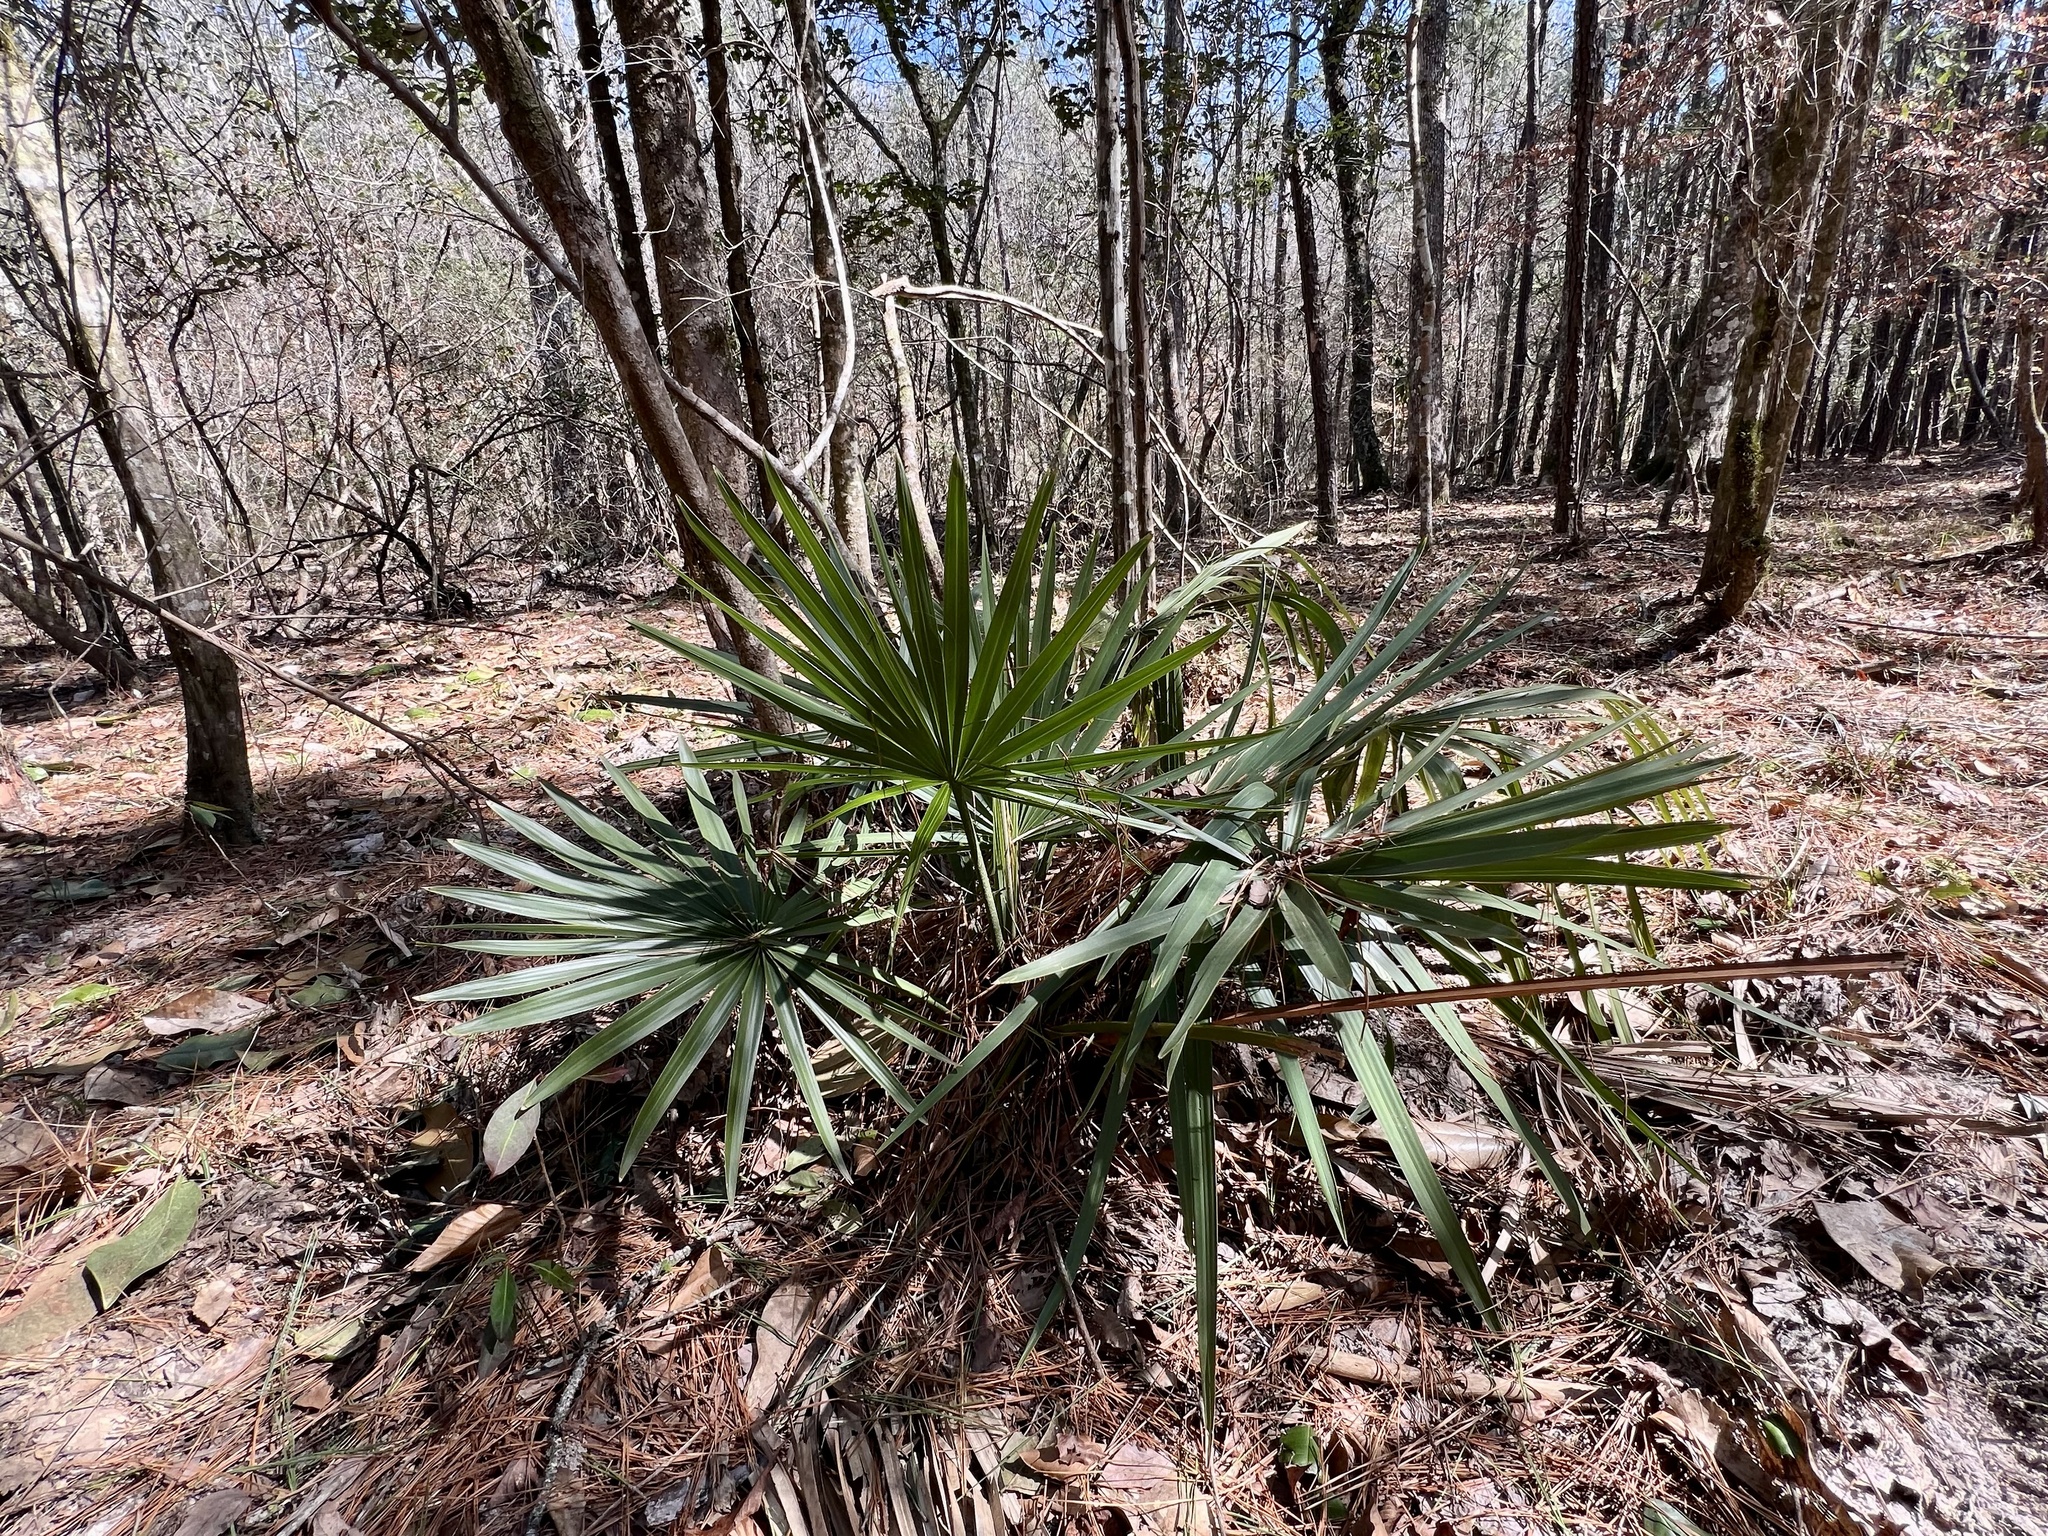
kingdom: Plantae
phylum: Tracheophyta
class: Liliopsida
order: Arecales
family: Arecaceae
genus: Sabal
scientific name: Sabal minor
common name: Dwarf palmetto
